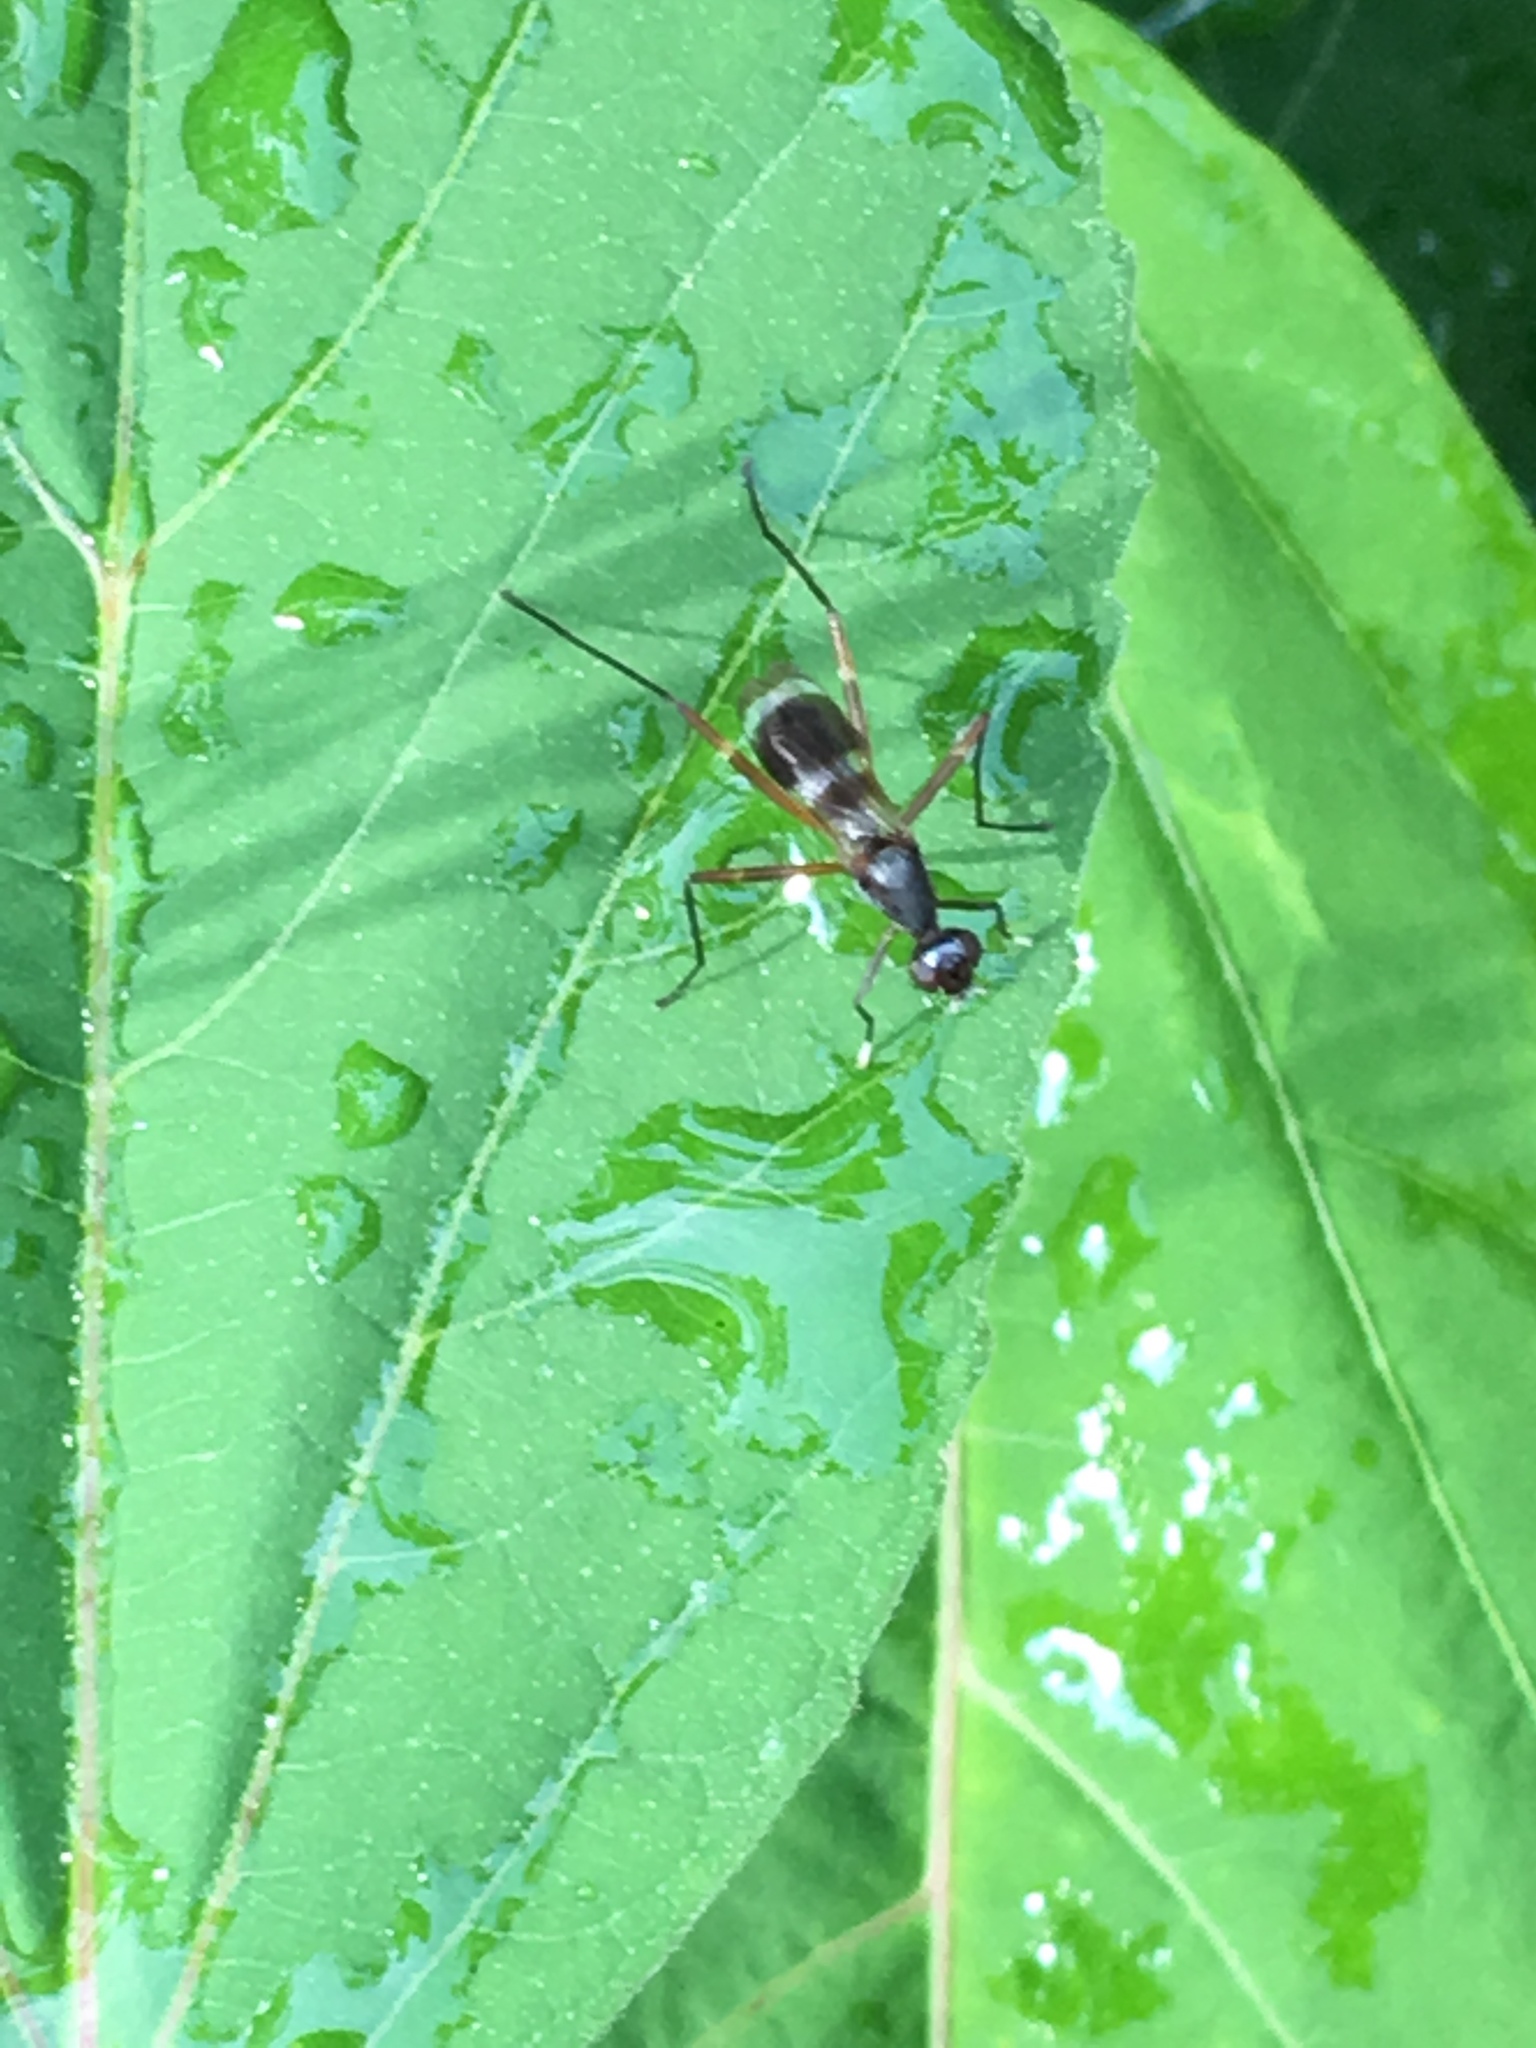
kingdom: Animalia
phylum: Arthropoda
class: Insecta
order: Diptera
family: Micropezidae
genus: Taeniaptera
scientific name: Taeniaptera trivittata
